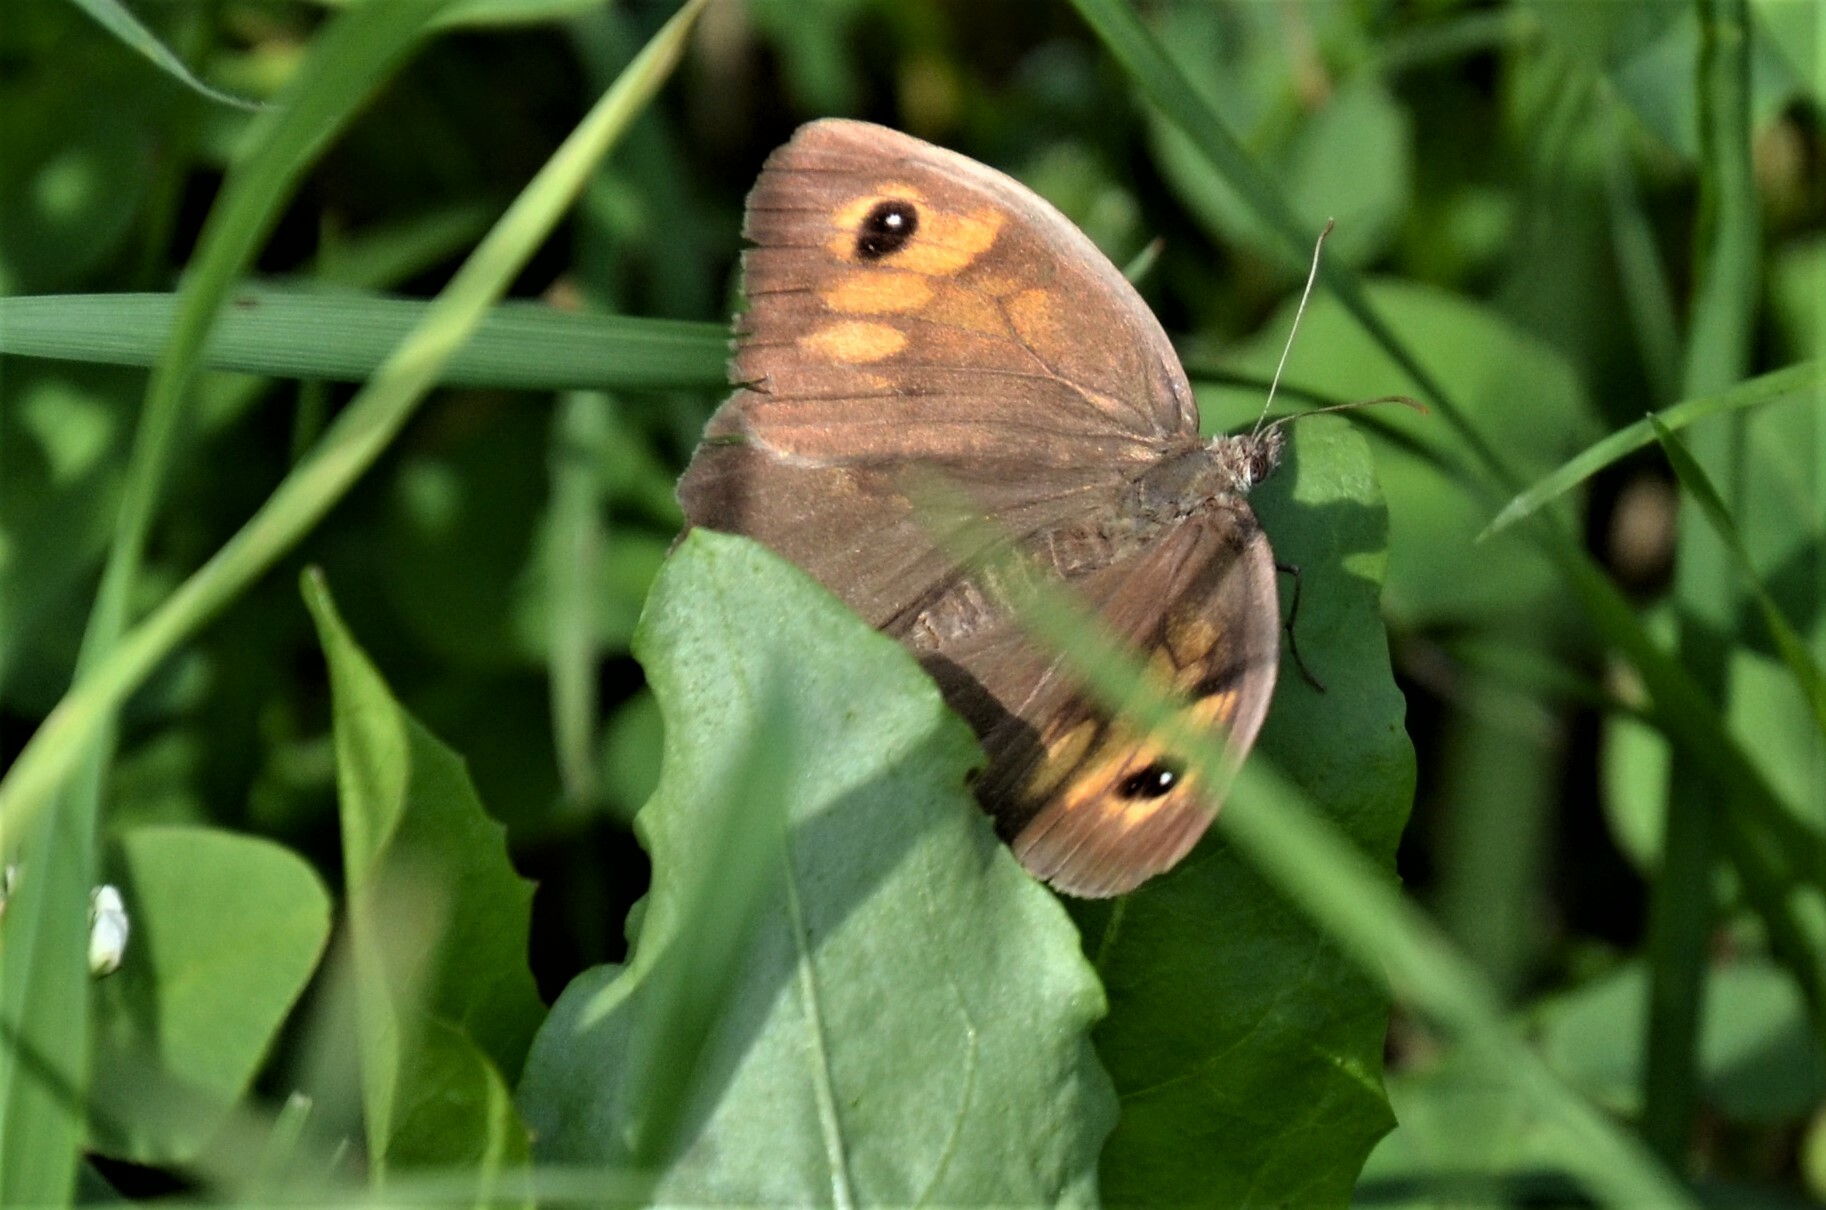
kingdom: Animalia
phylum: Arthropoda
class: Insecta
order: Lepidoptera
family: Nymphalidae
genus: Maniola
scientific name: Maniola jurtina
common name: Meadow brown
